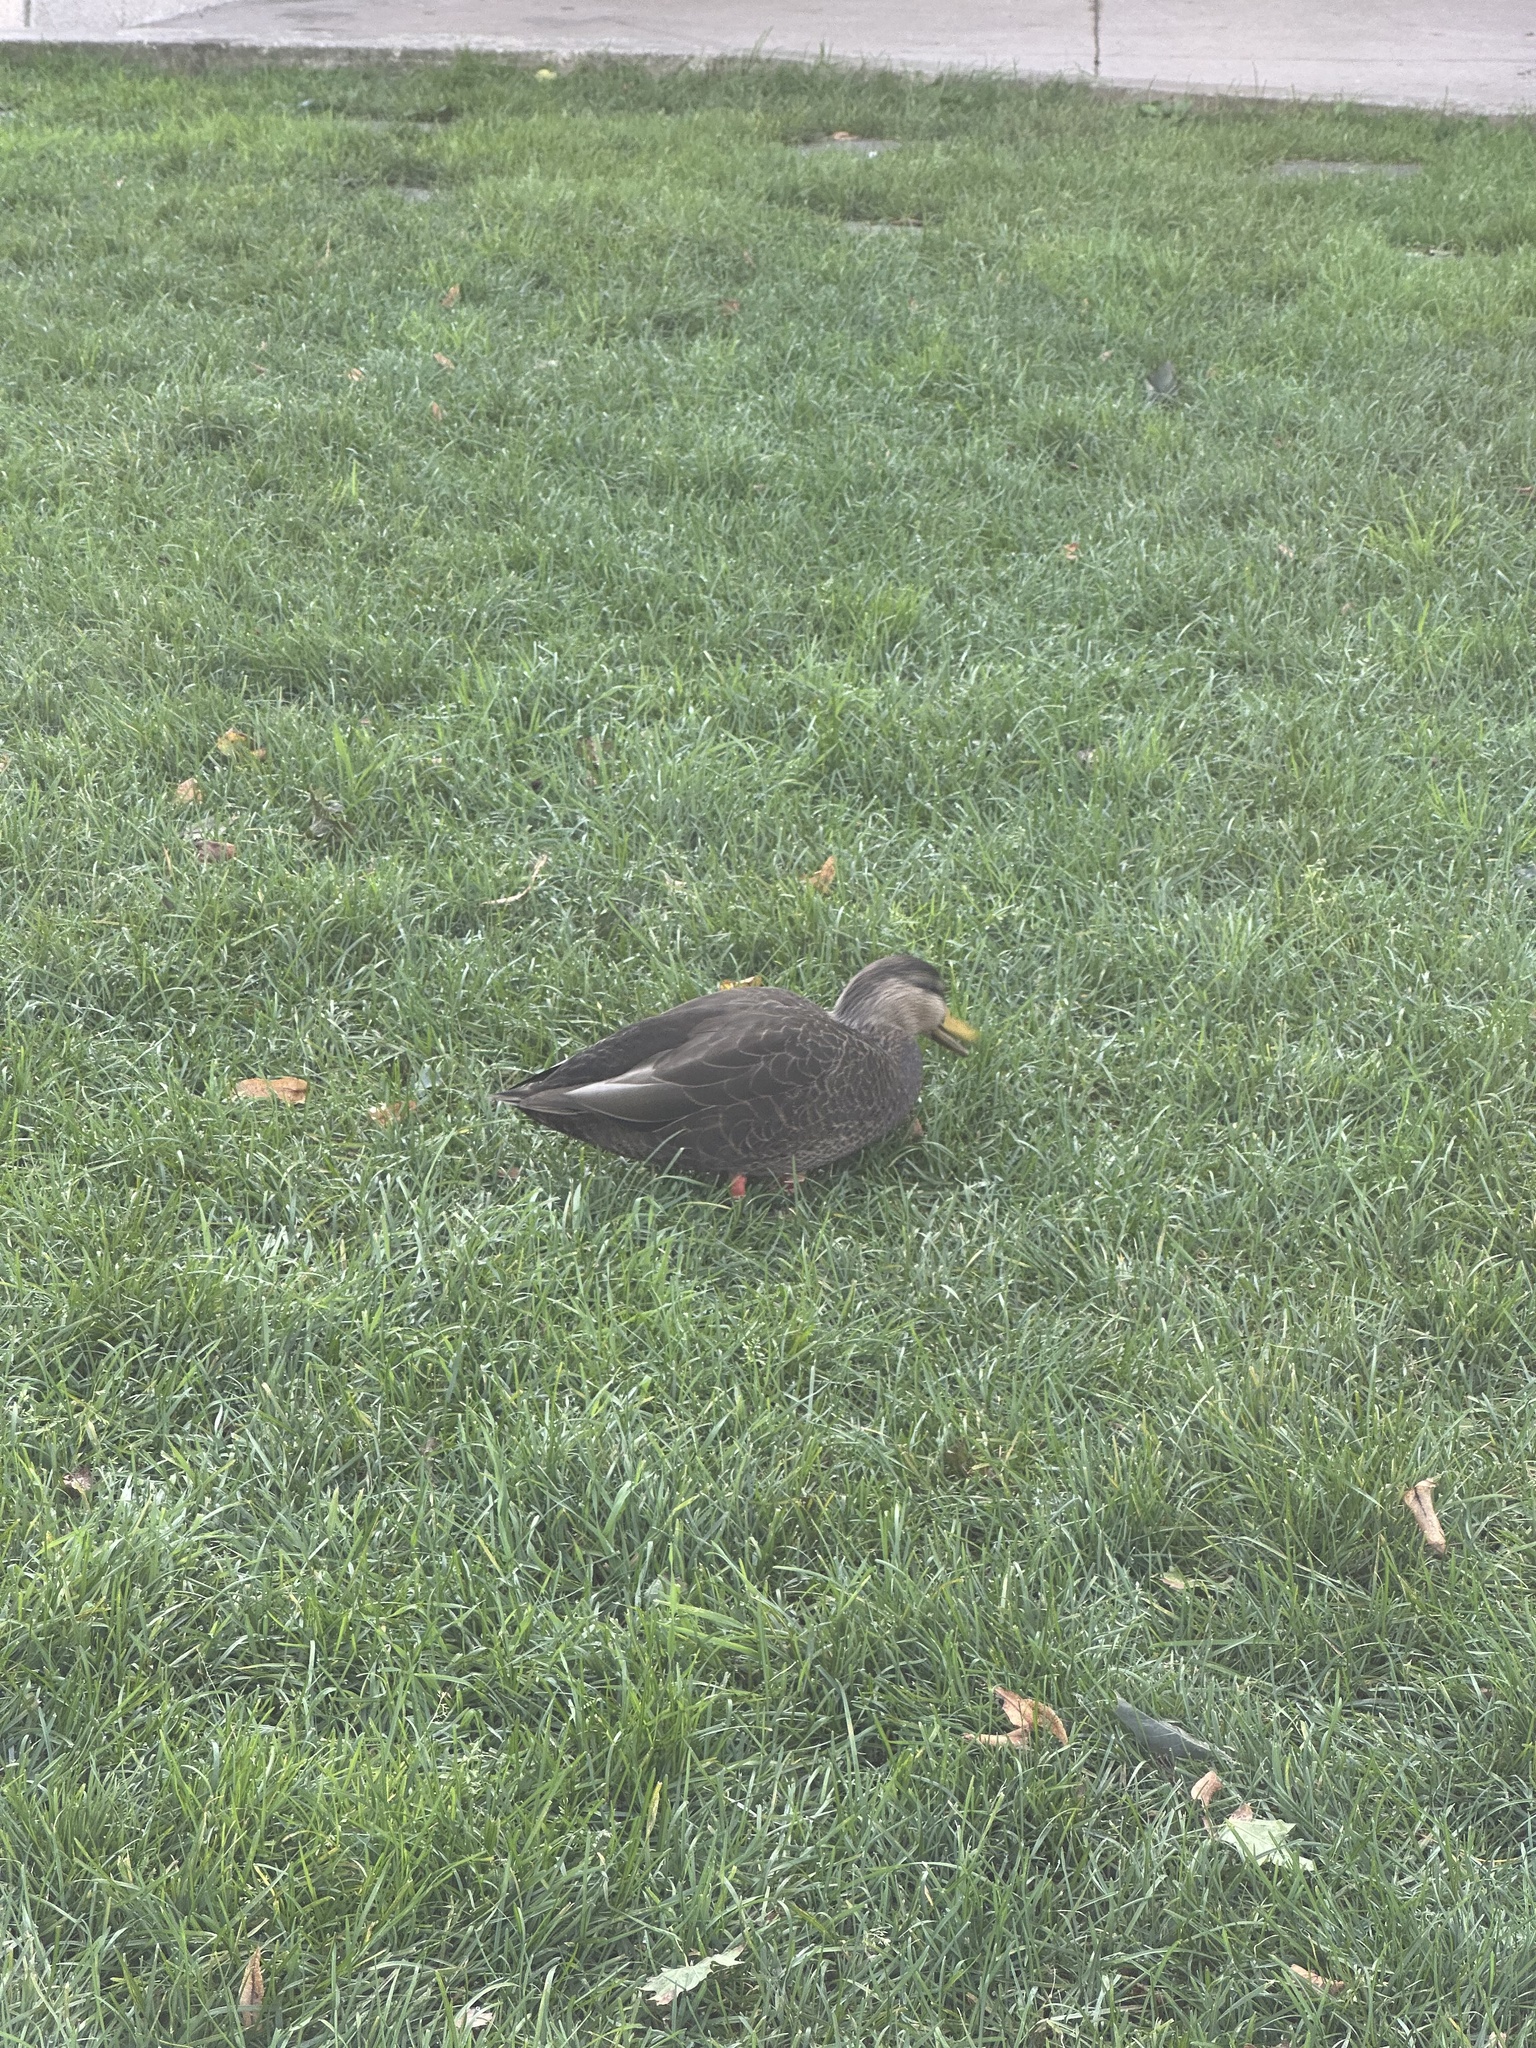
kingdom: Animalia
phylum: Chordata
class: Aves
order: Anseriformes
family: Anatidae
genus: Anas
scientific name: Anas rubripes
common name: American black duck
